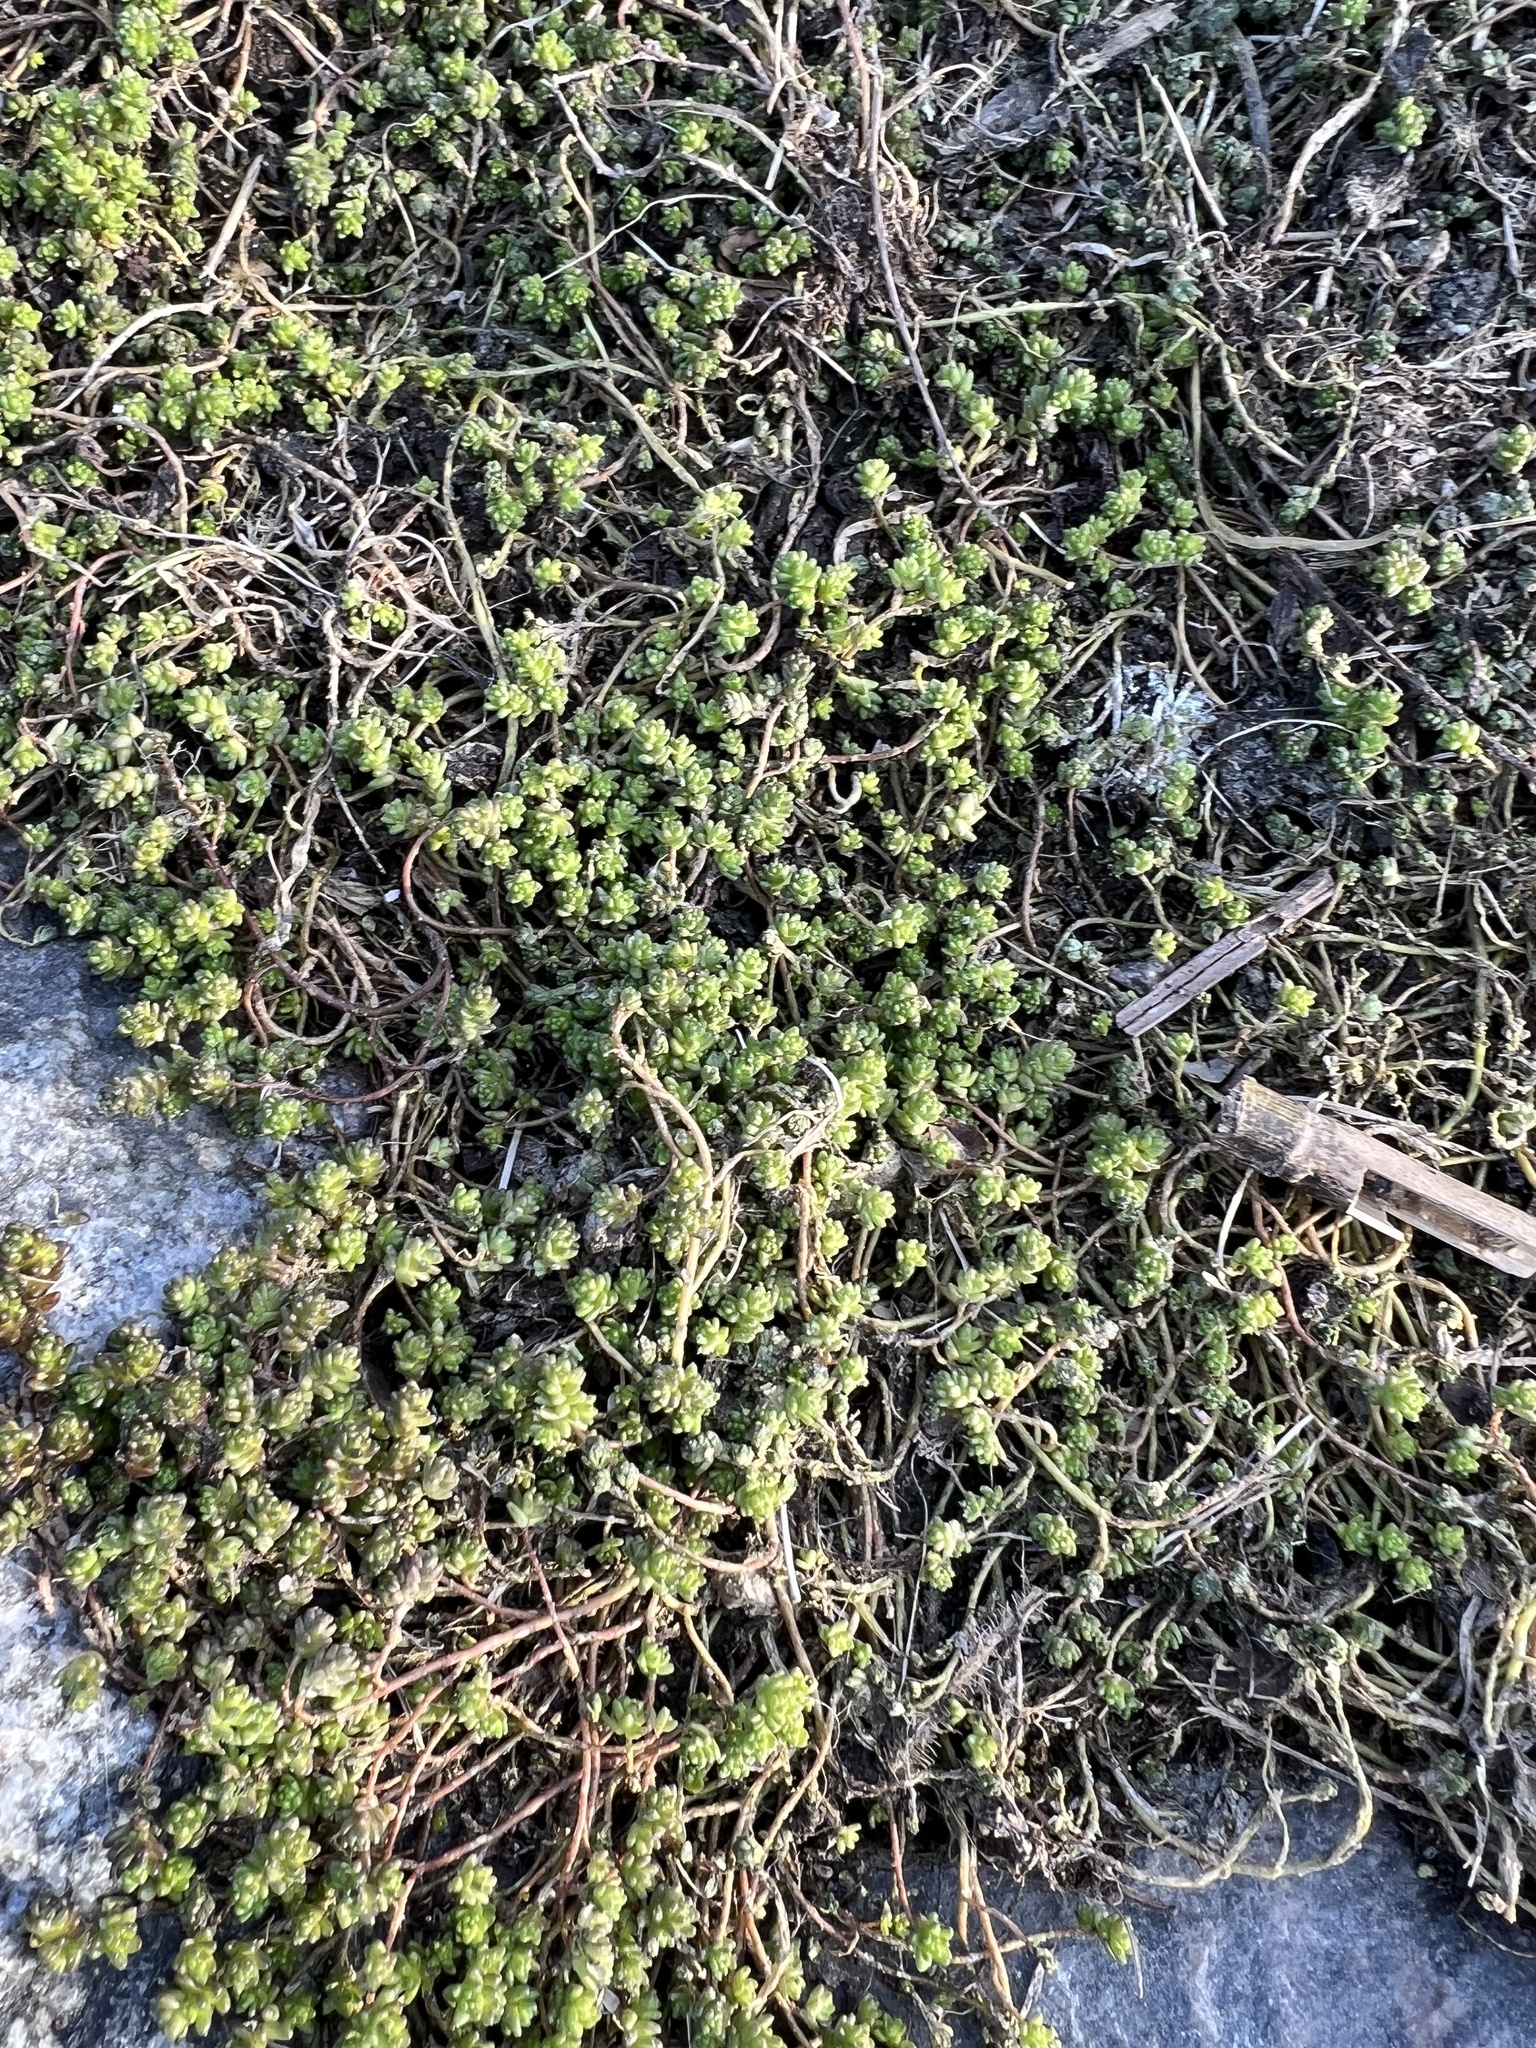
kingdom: Plantae
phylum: Tracheophyta
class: Magnoliopsida
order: Saxifragales
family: Crassulaceae
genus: Sedum
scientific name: Sedum acre
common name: Biting stonecrop
